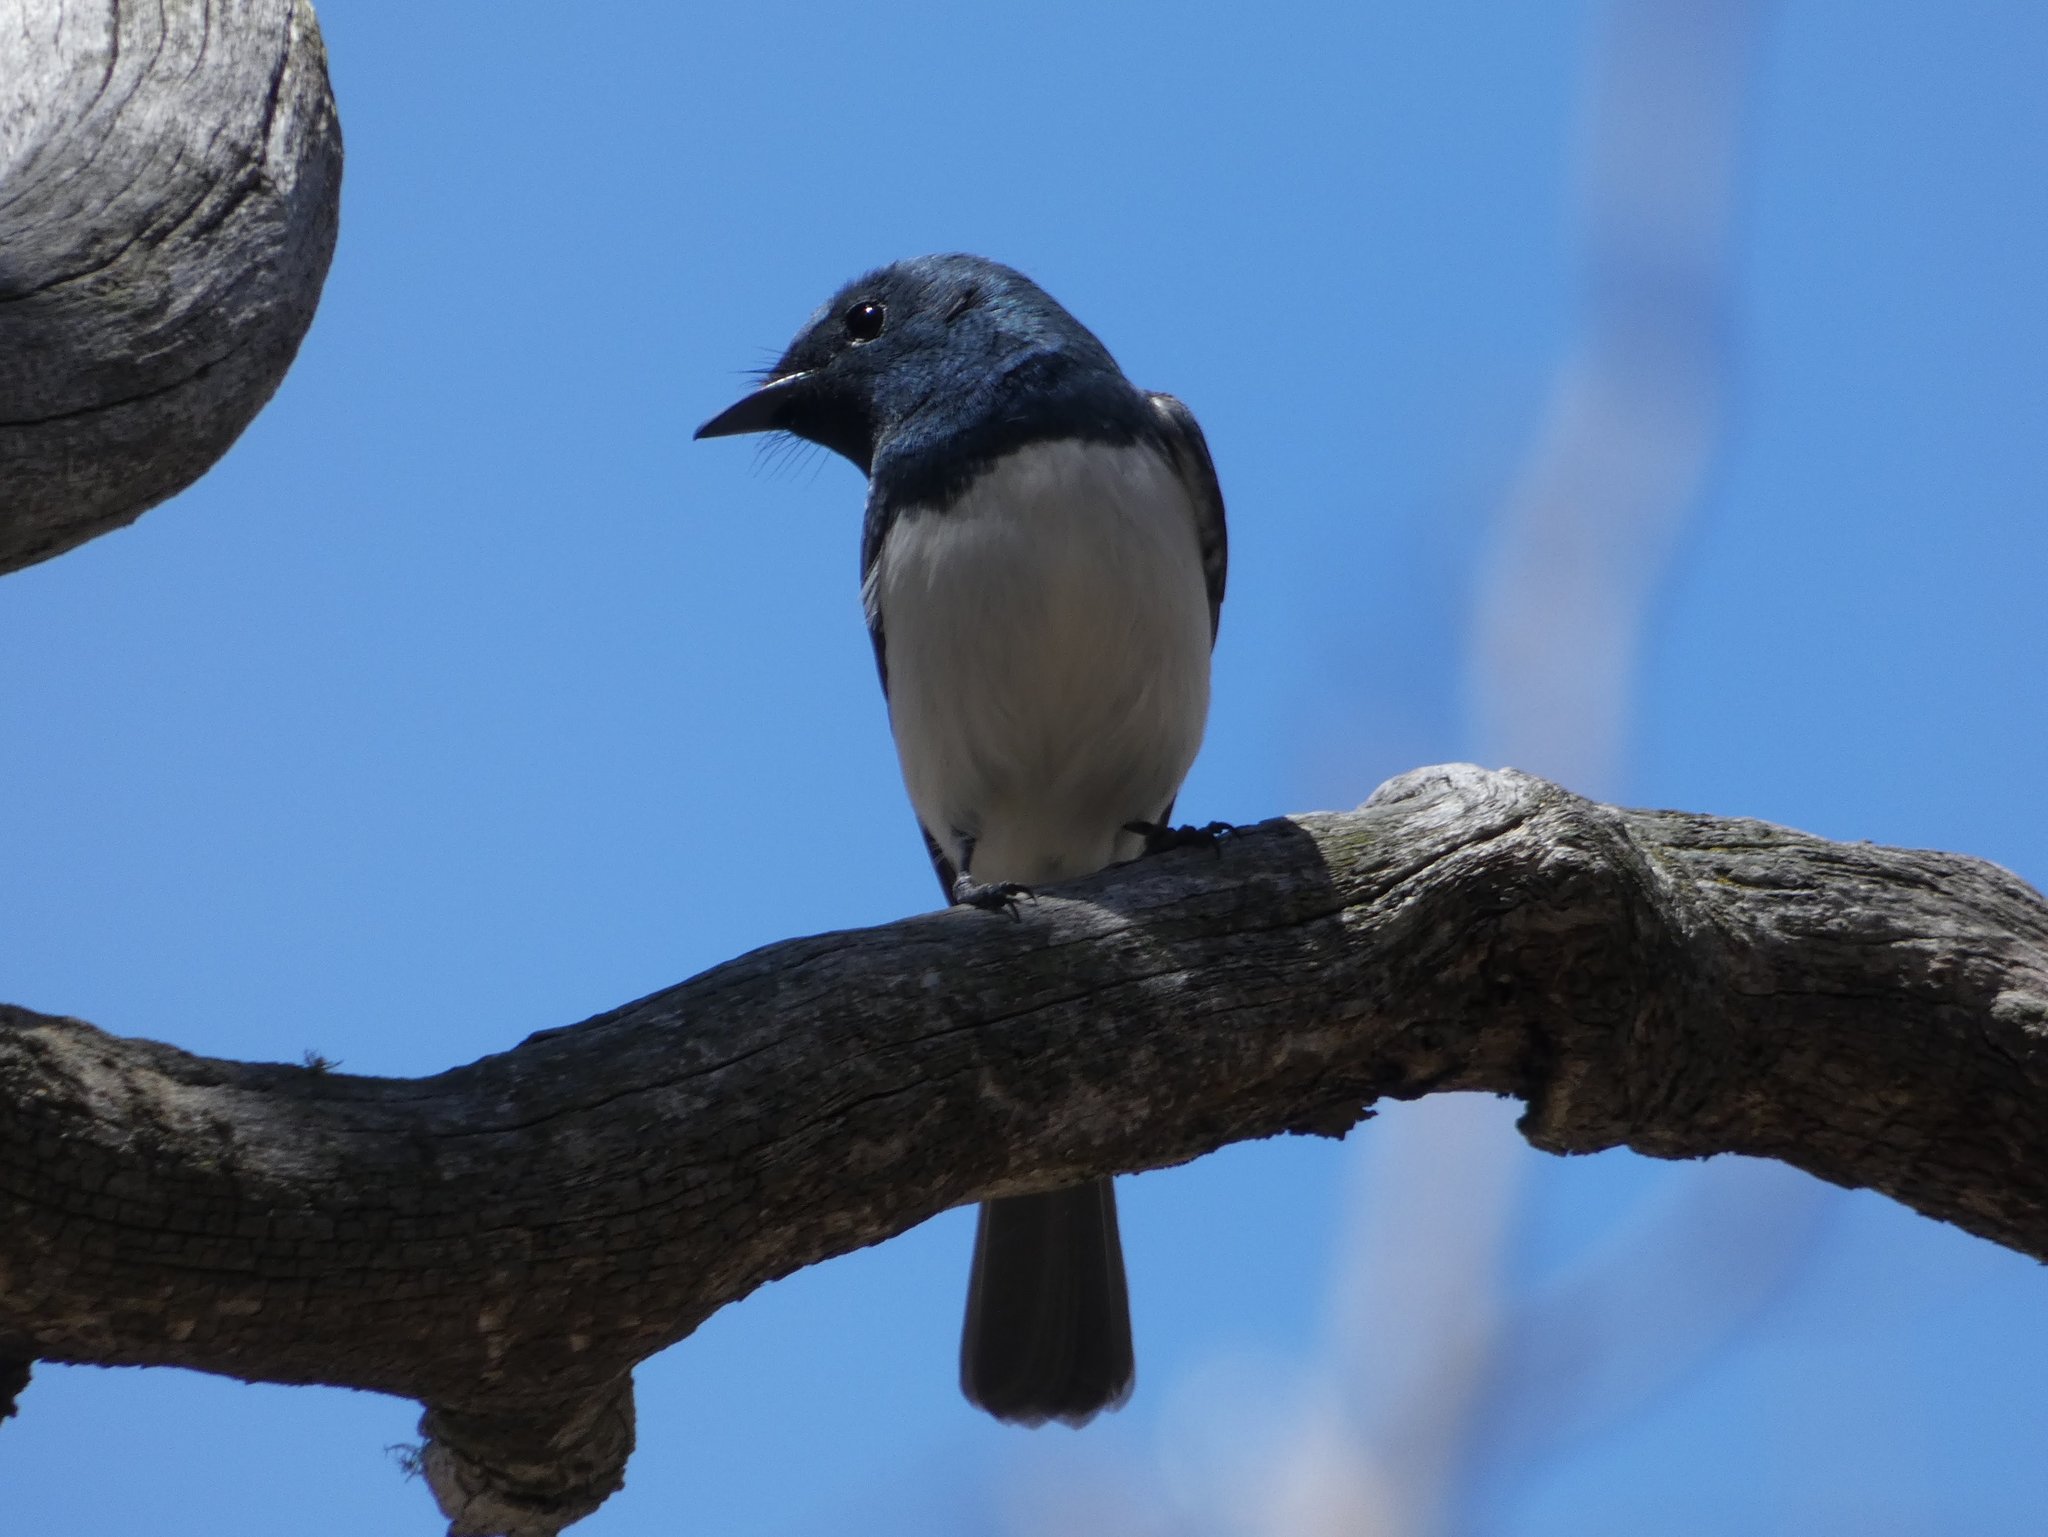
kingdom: Animalia
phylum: Chordata
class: Aves
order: Passeriformes
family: Monarchidae
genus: Myiagra
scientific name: Myiagra rubecula
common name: Leaden flycatcher
